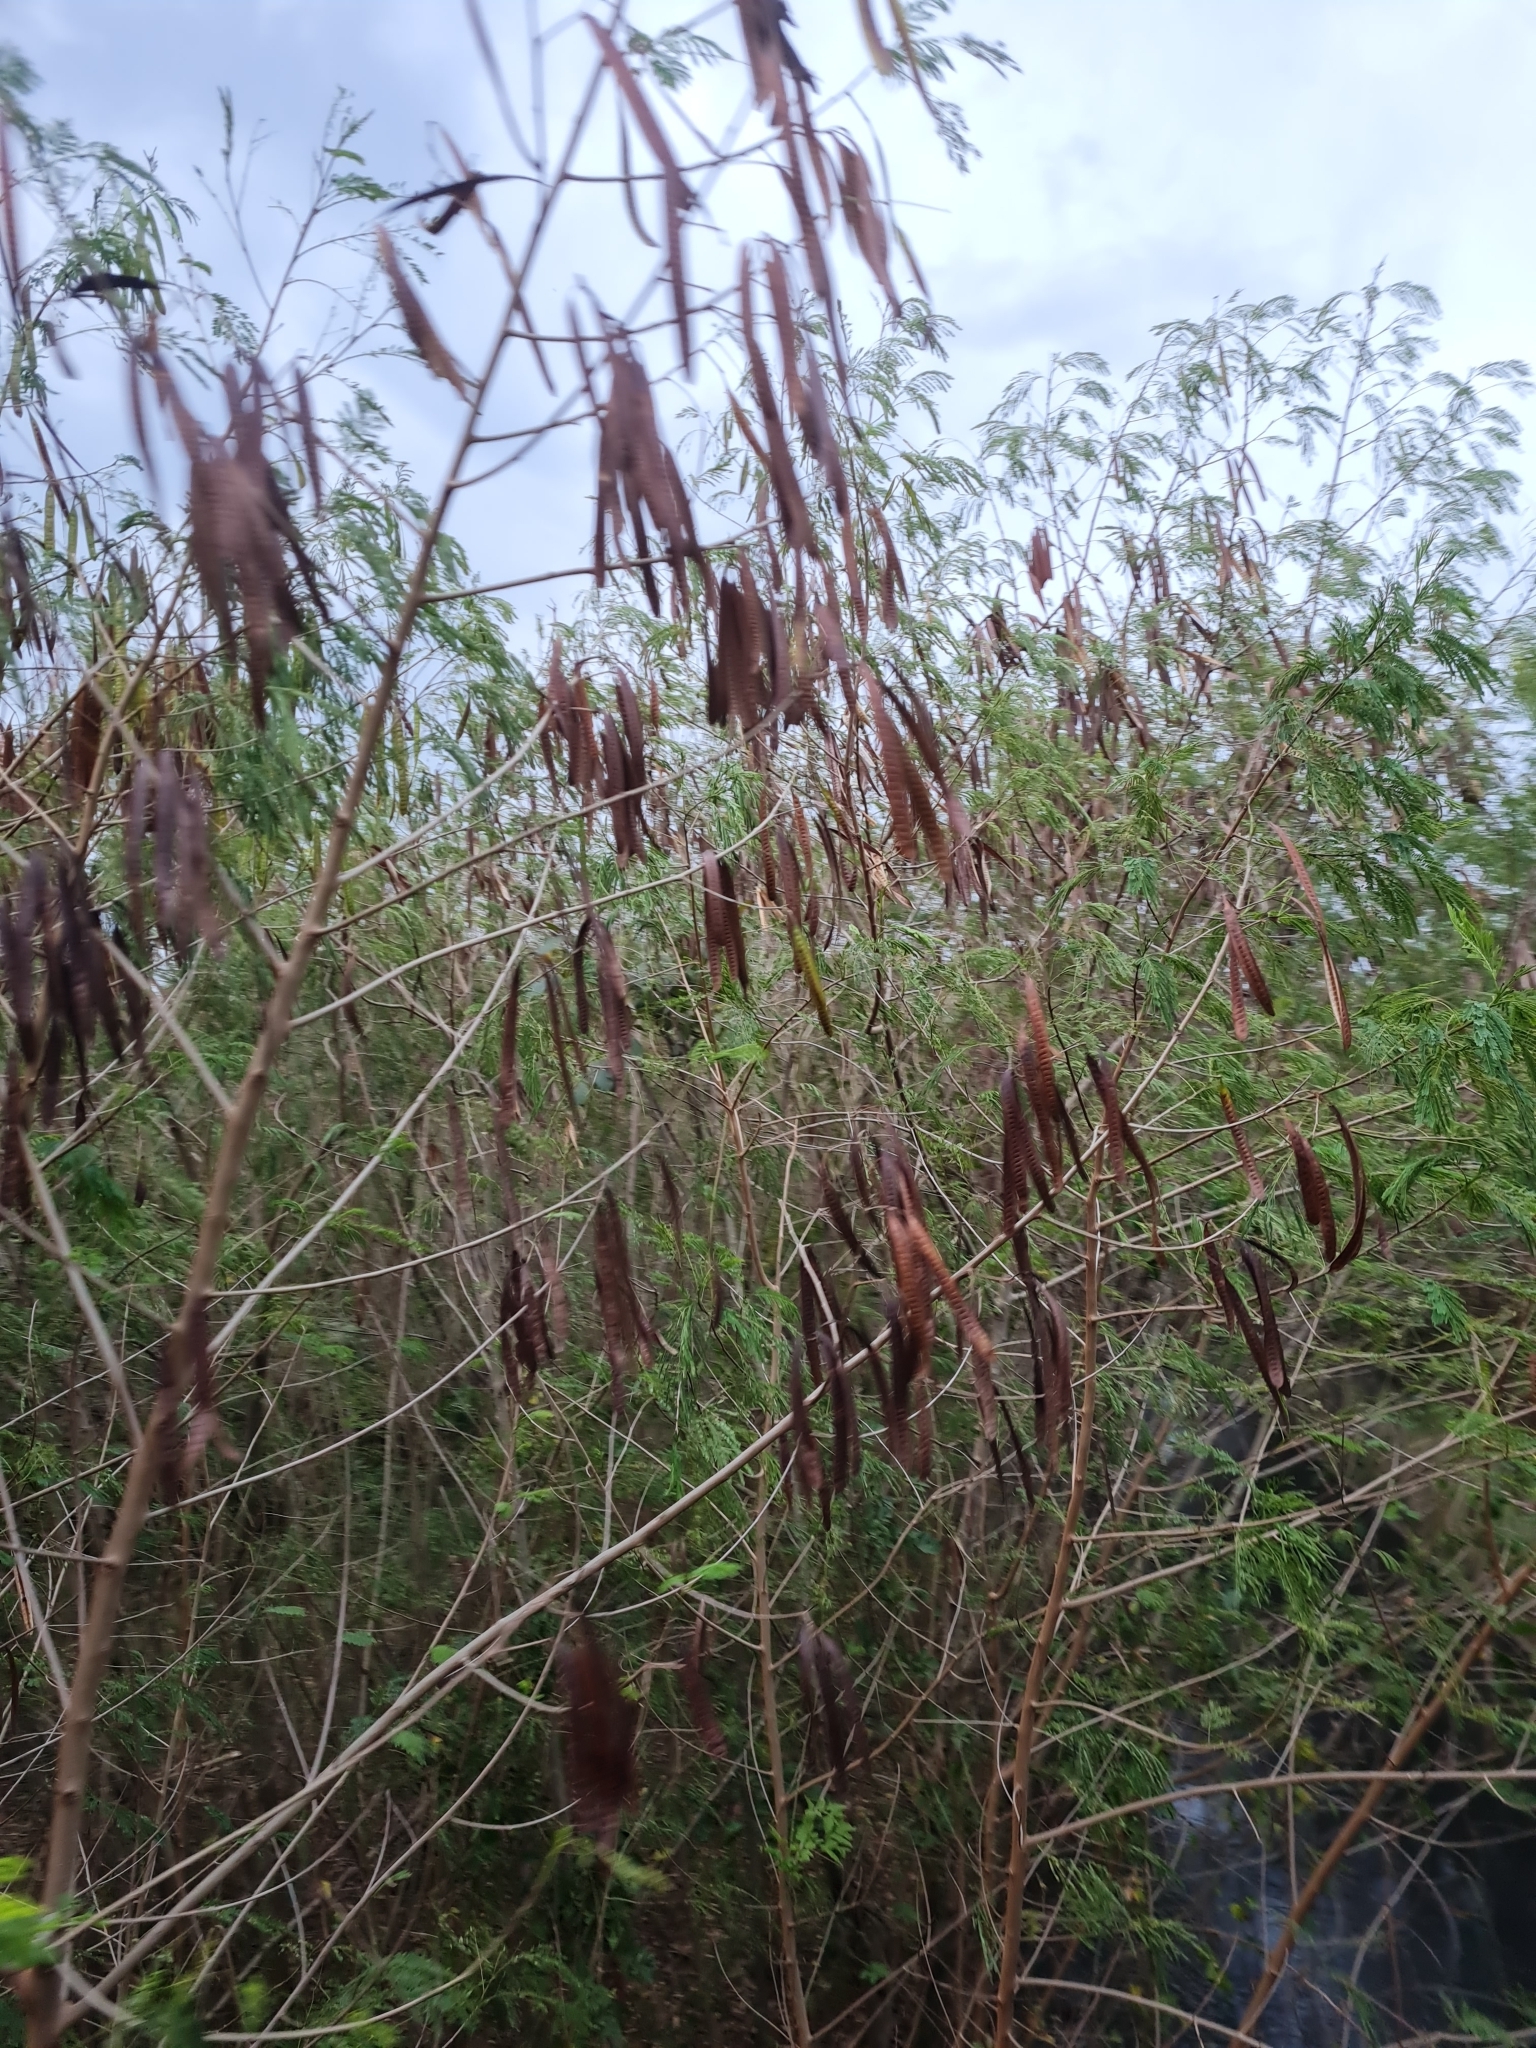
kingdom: Plantae
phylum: Tracheophyta
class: Magnoliopsida
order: Fabales
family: Fabaceae
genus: Leucaena
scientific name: Leucaena leucocephala
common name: White leadtree
